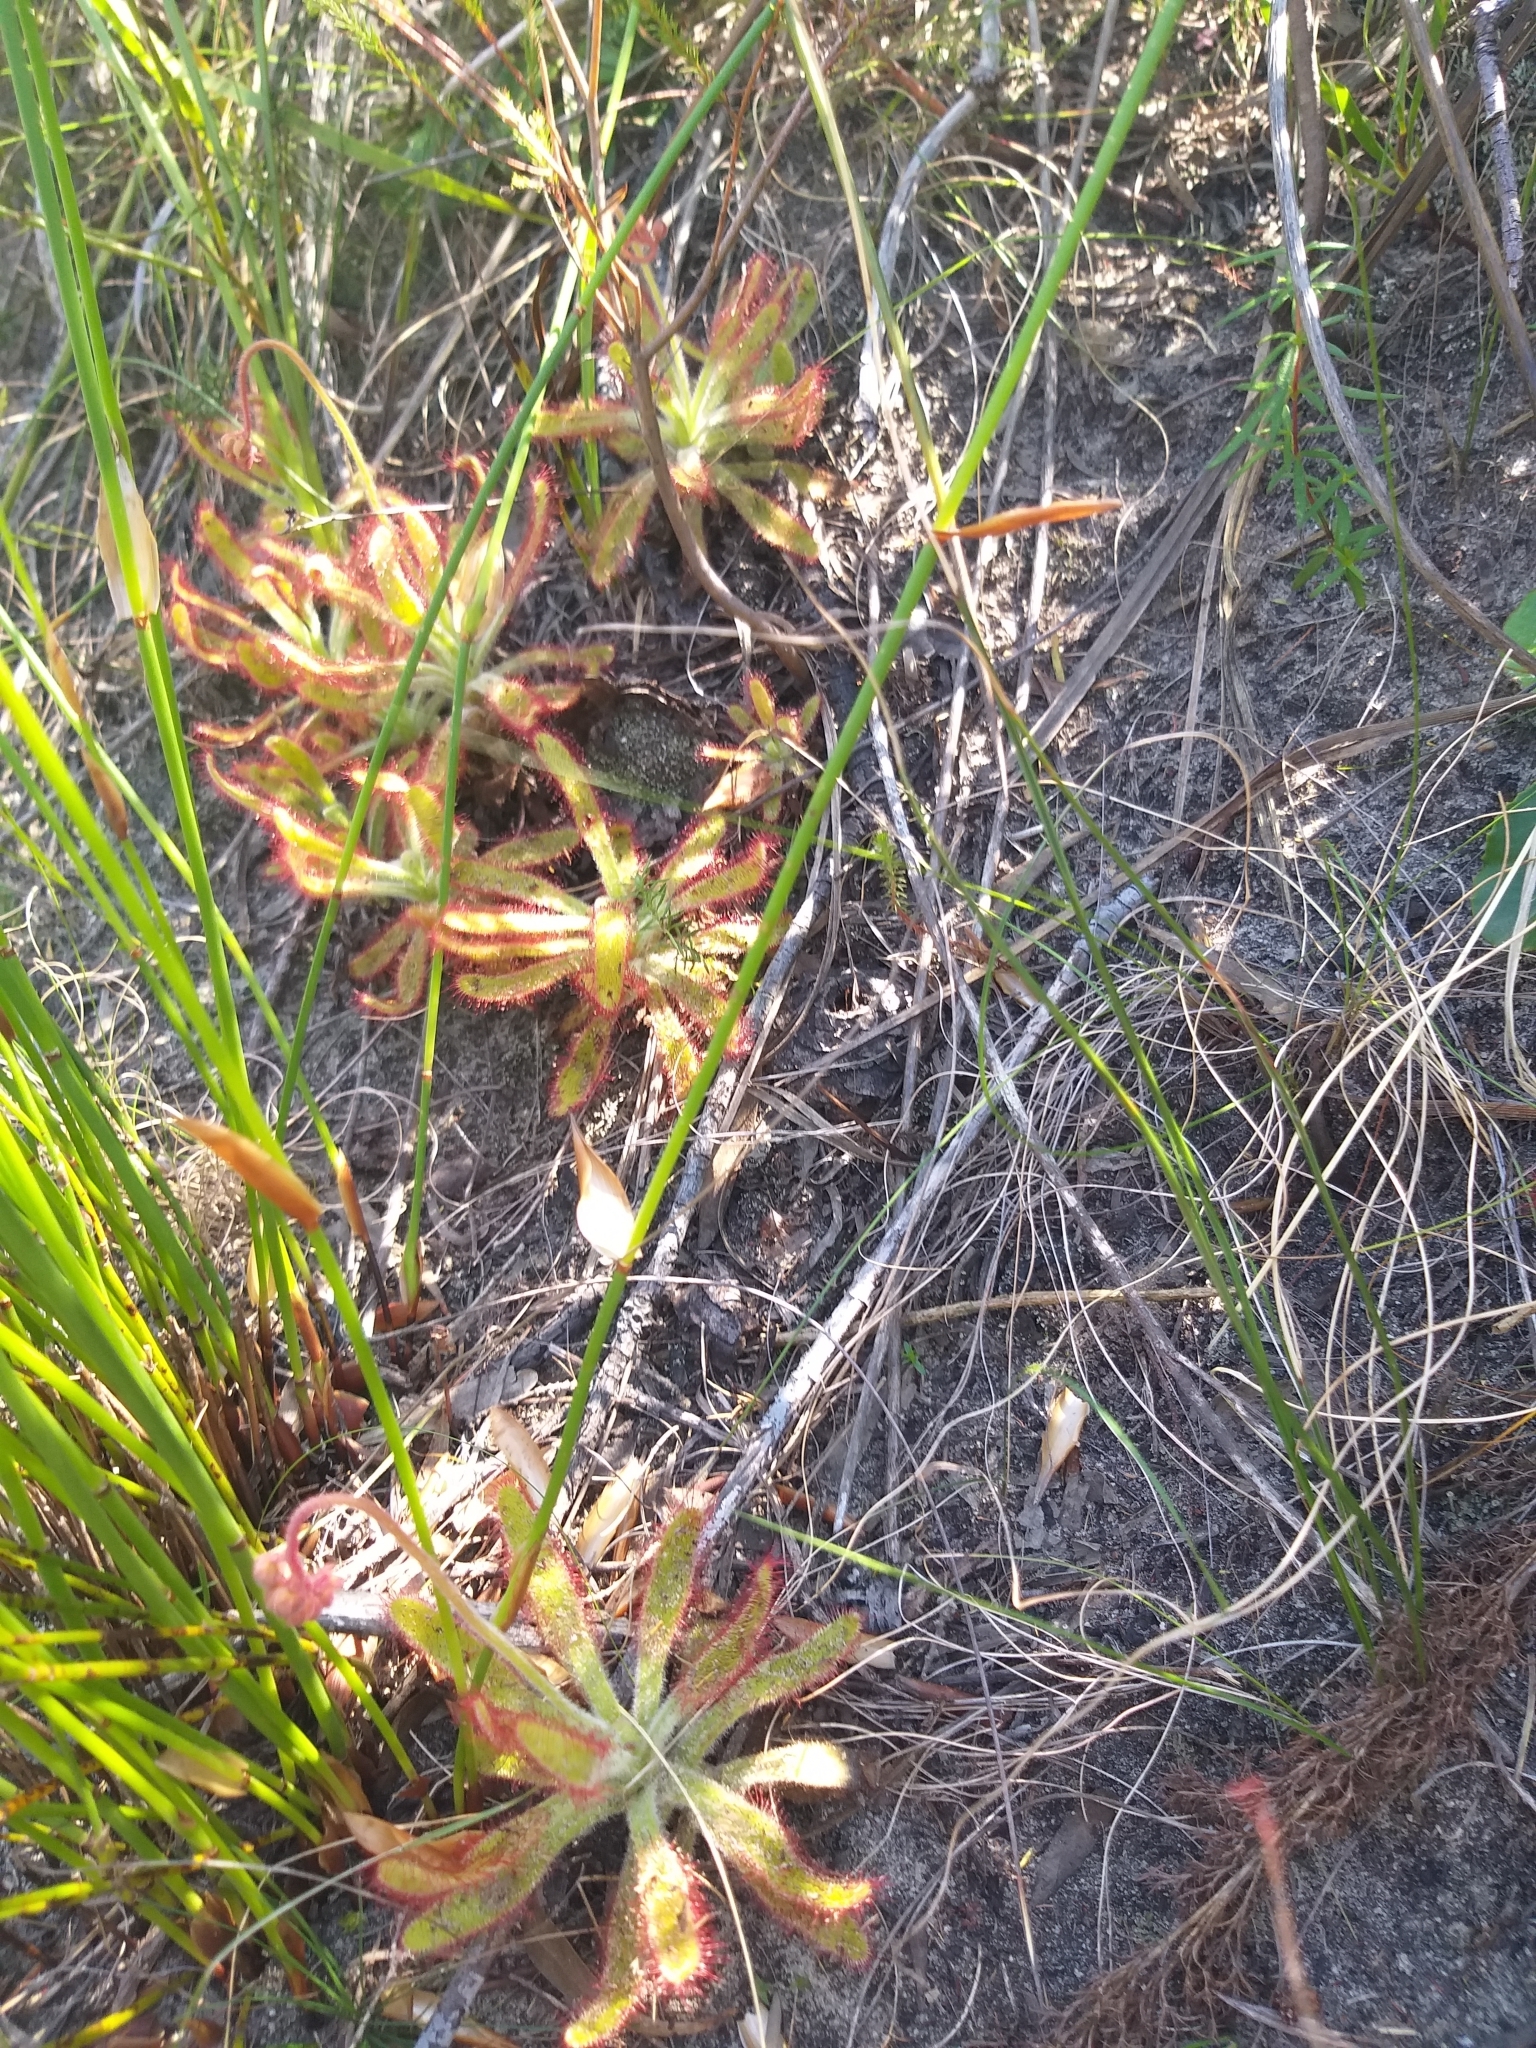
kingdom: Plantae
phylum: Tracheophyta
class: Magnoliopsida
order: Caryophyllales
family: Droseraceae
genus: Drosera
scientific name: Drosera hilaris
